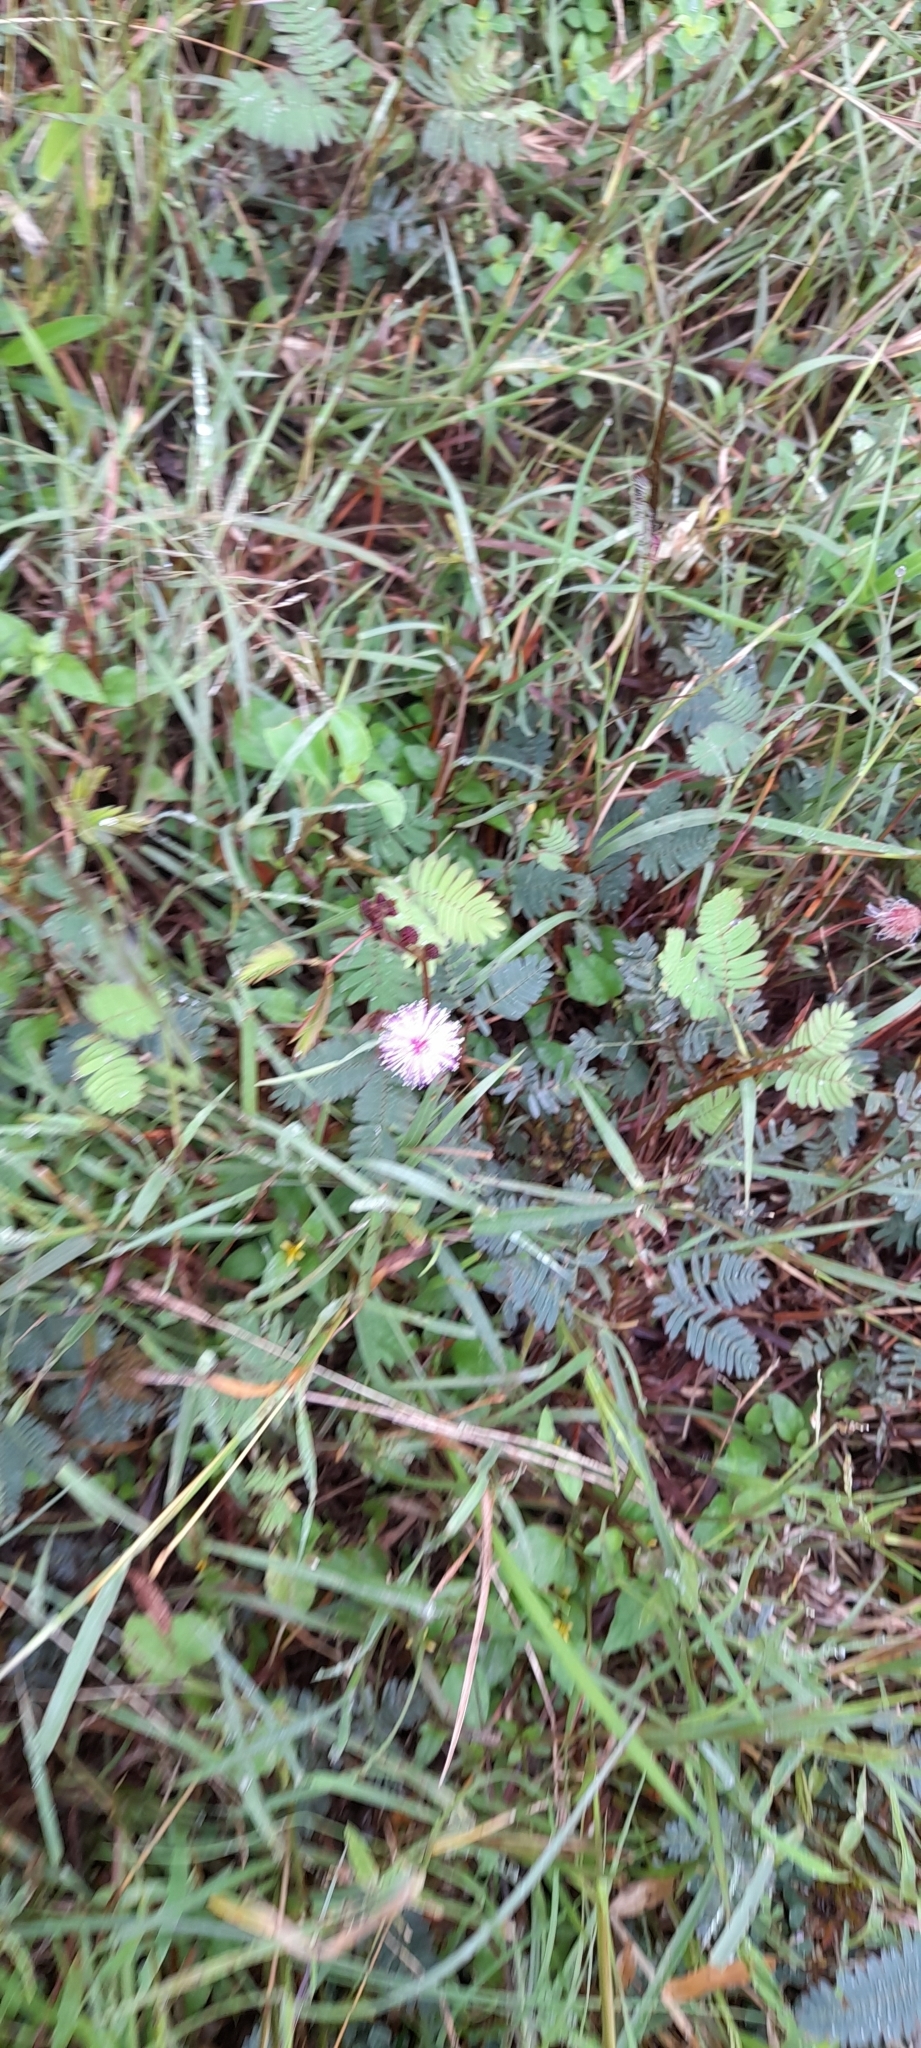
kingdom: Plantae
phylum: Tracheophyta
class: Magnoliopsida
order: Fabales
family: Fabaceae
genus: Mimosa
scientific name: Mimosa pudica
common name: Sensitive plant
